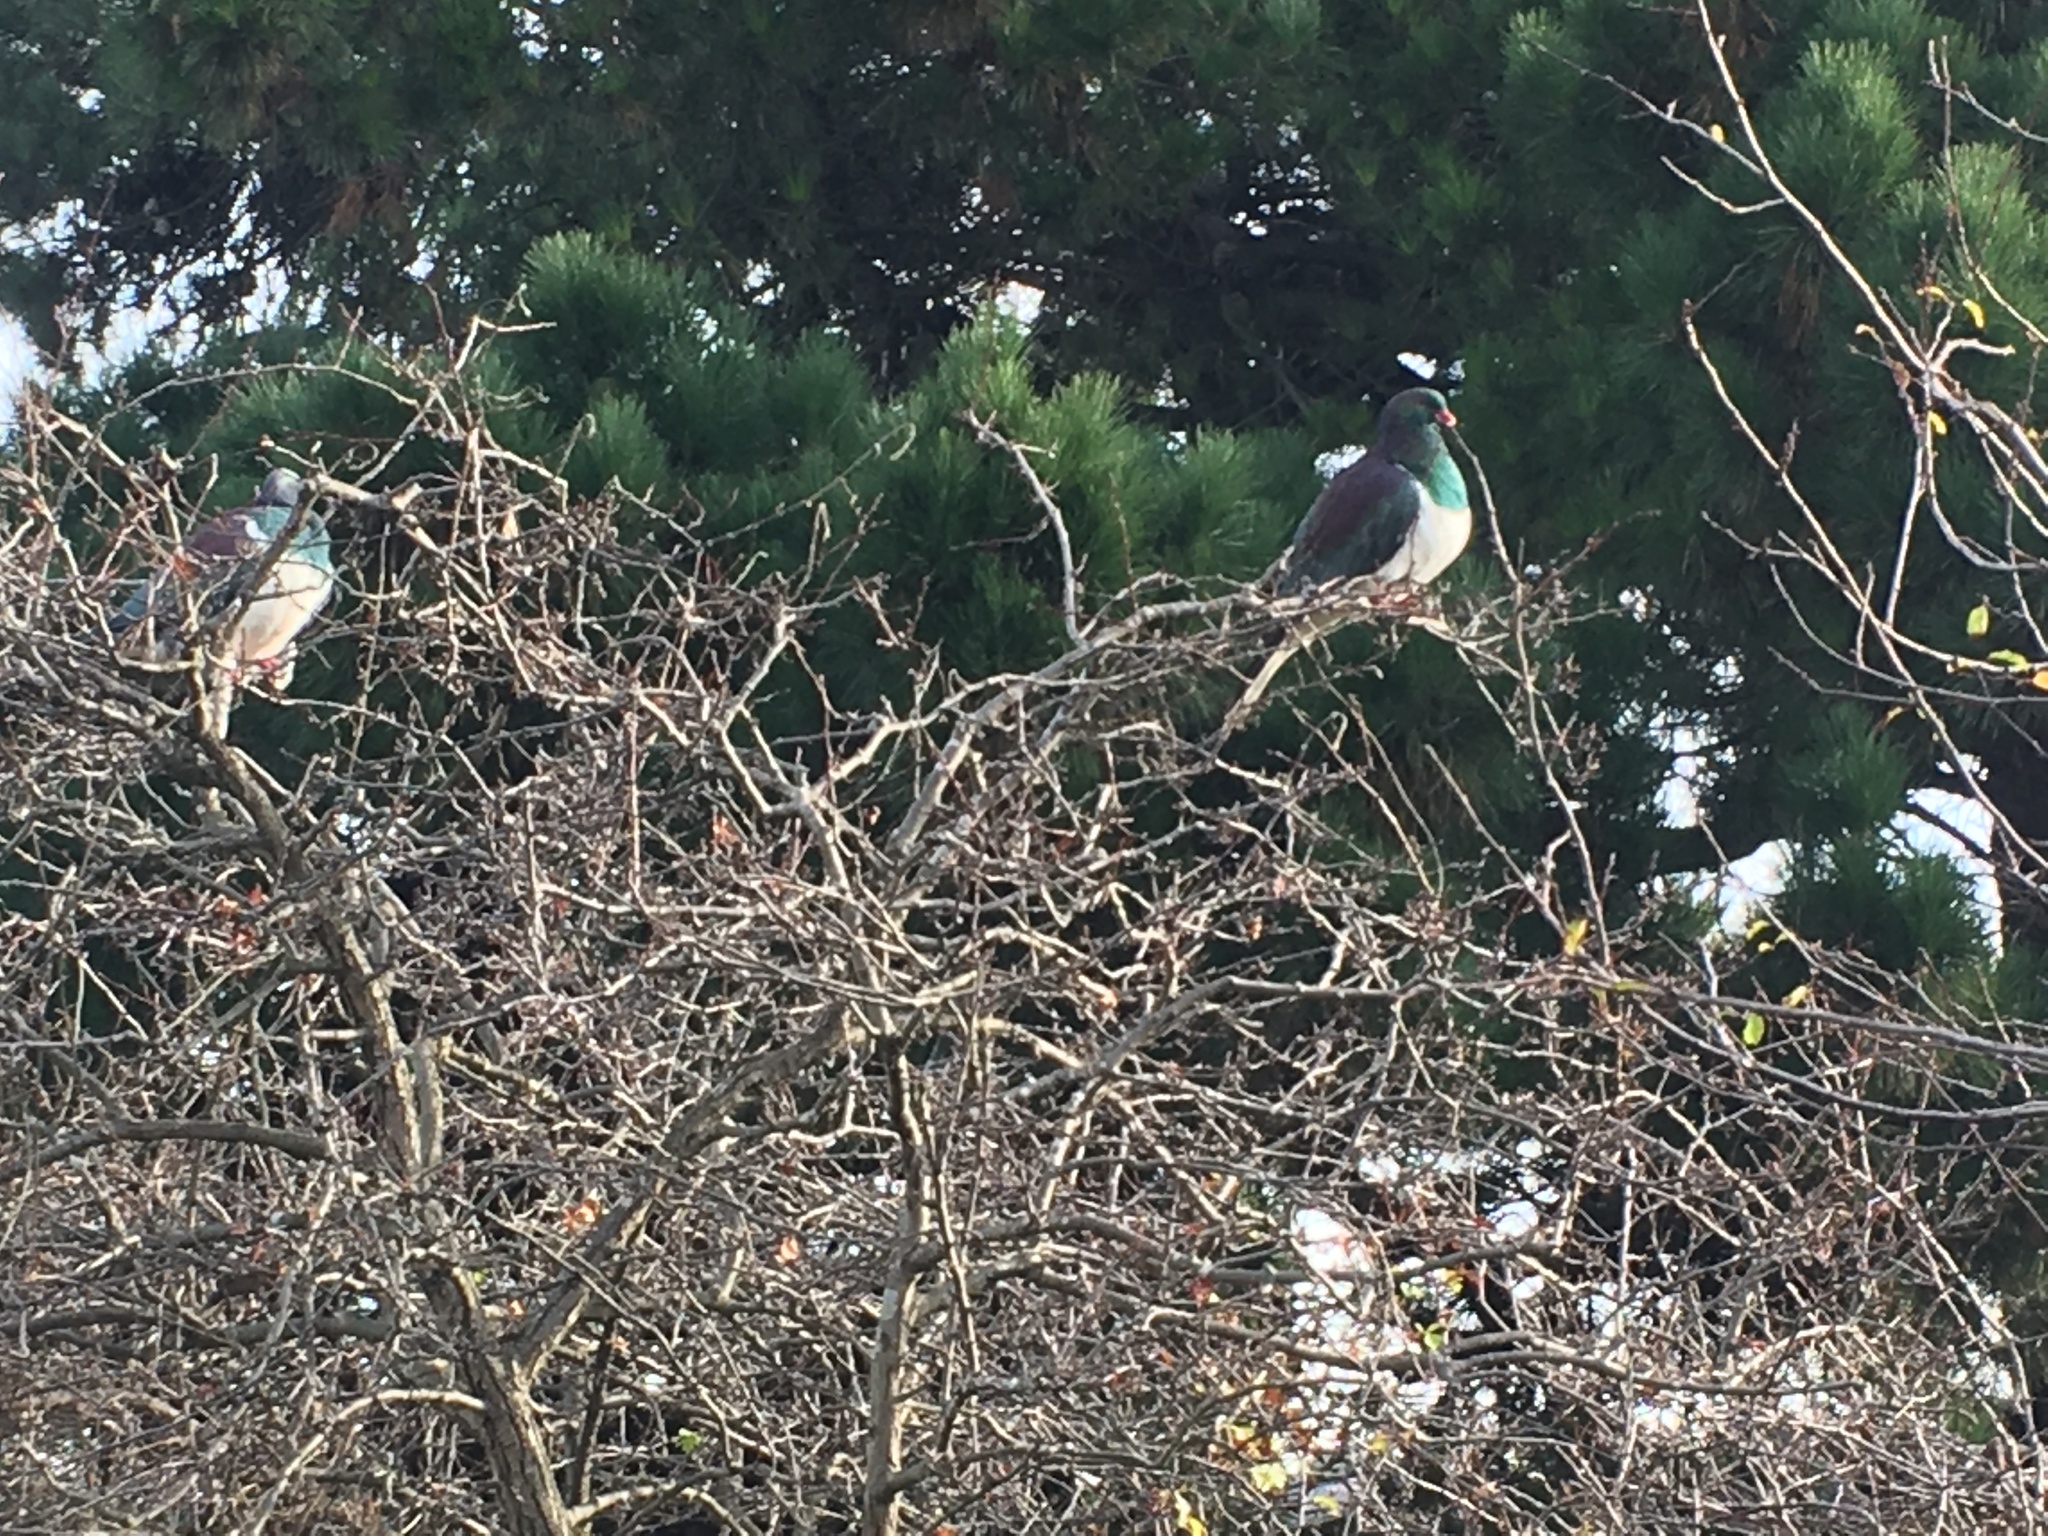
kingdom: Animalia
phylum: Chordata
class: Aves
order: Columbiformes
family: Columbidae
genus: Hemiphaga
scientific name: Hemiphaga novaeseelandiae
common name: New zealand pigeon
